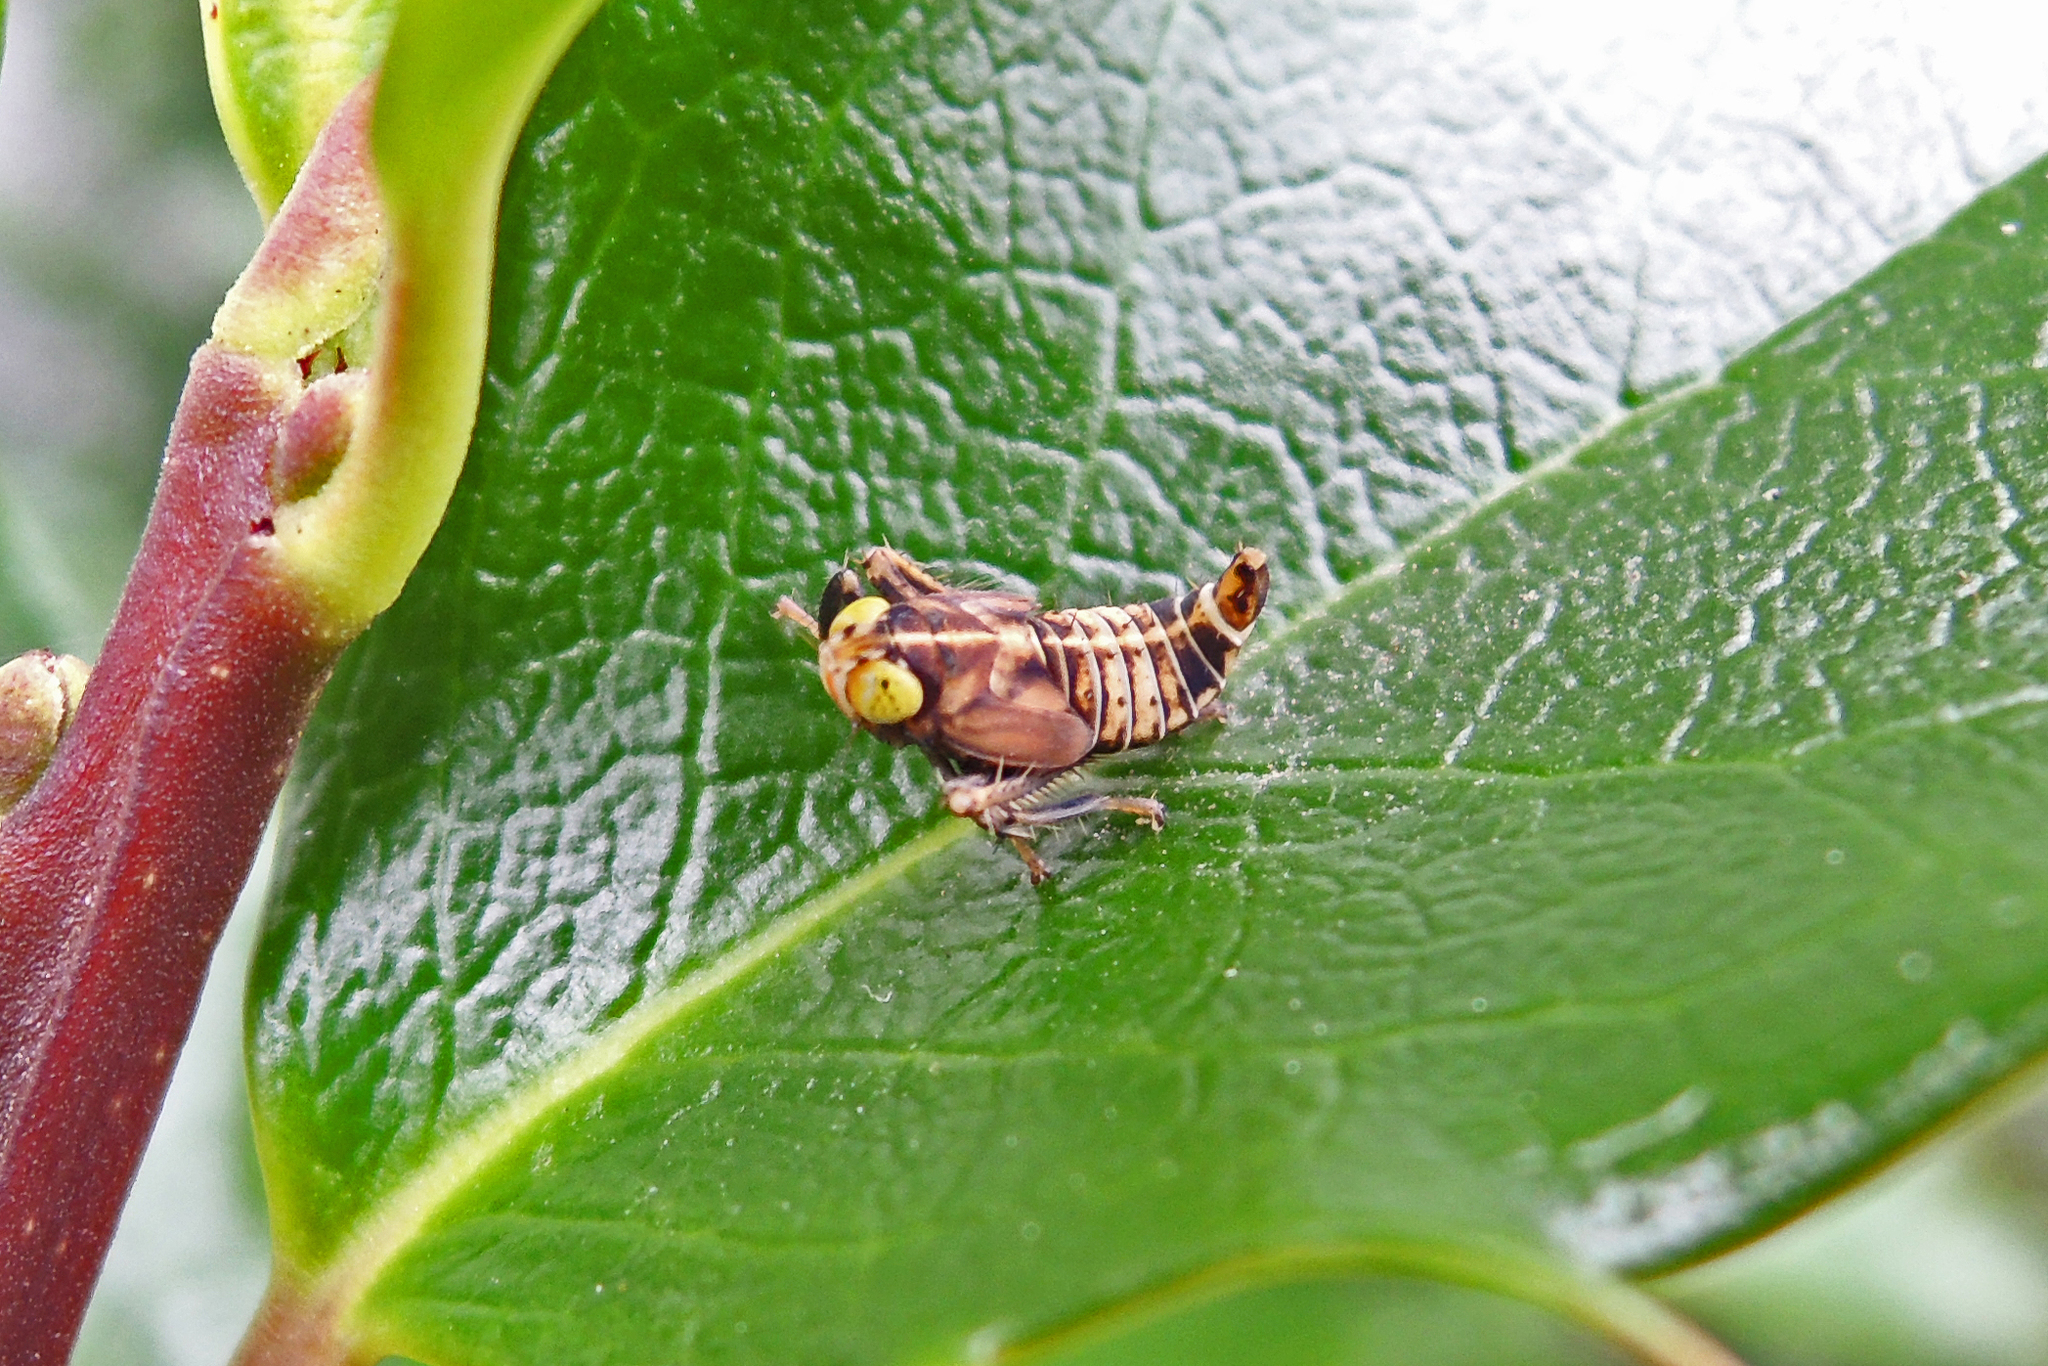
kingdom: Animalia
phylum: Arthropoda
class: Insecta
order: Hemiptera
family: Cicadellidae
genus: Jikradia
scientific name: Jikradia olitoria
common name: Coppery leafhopper
